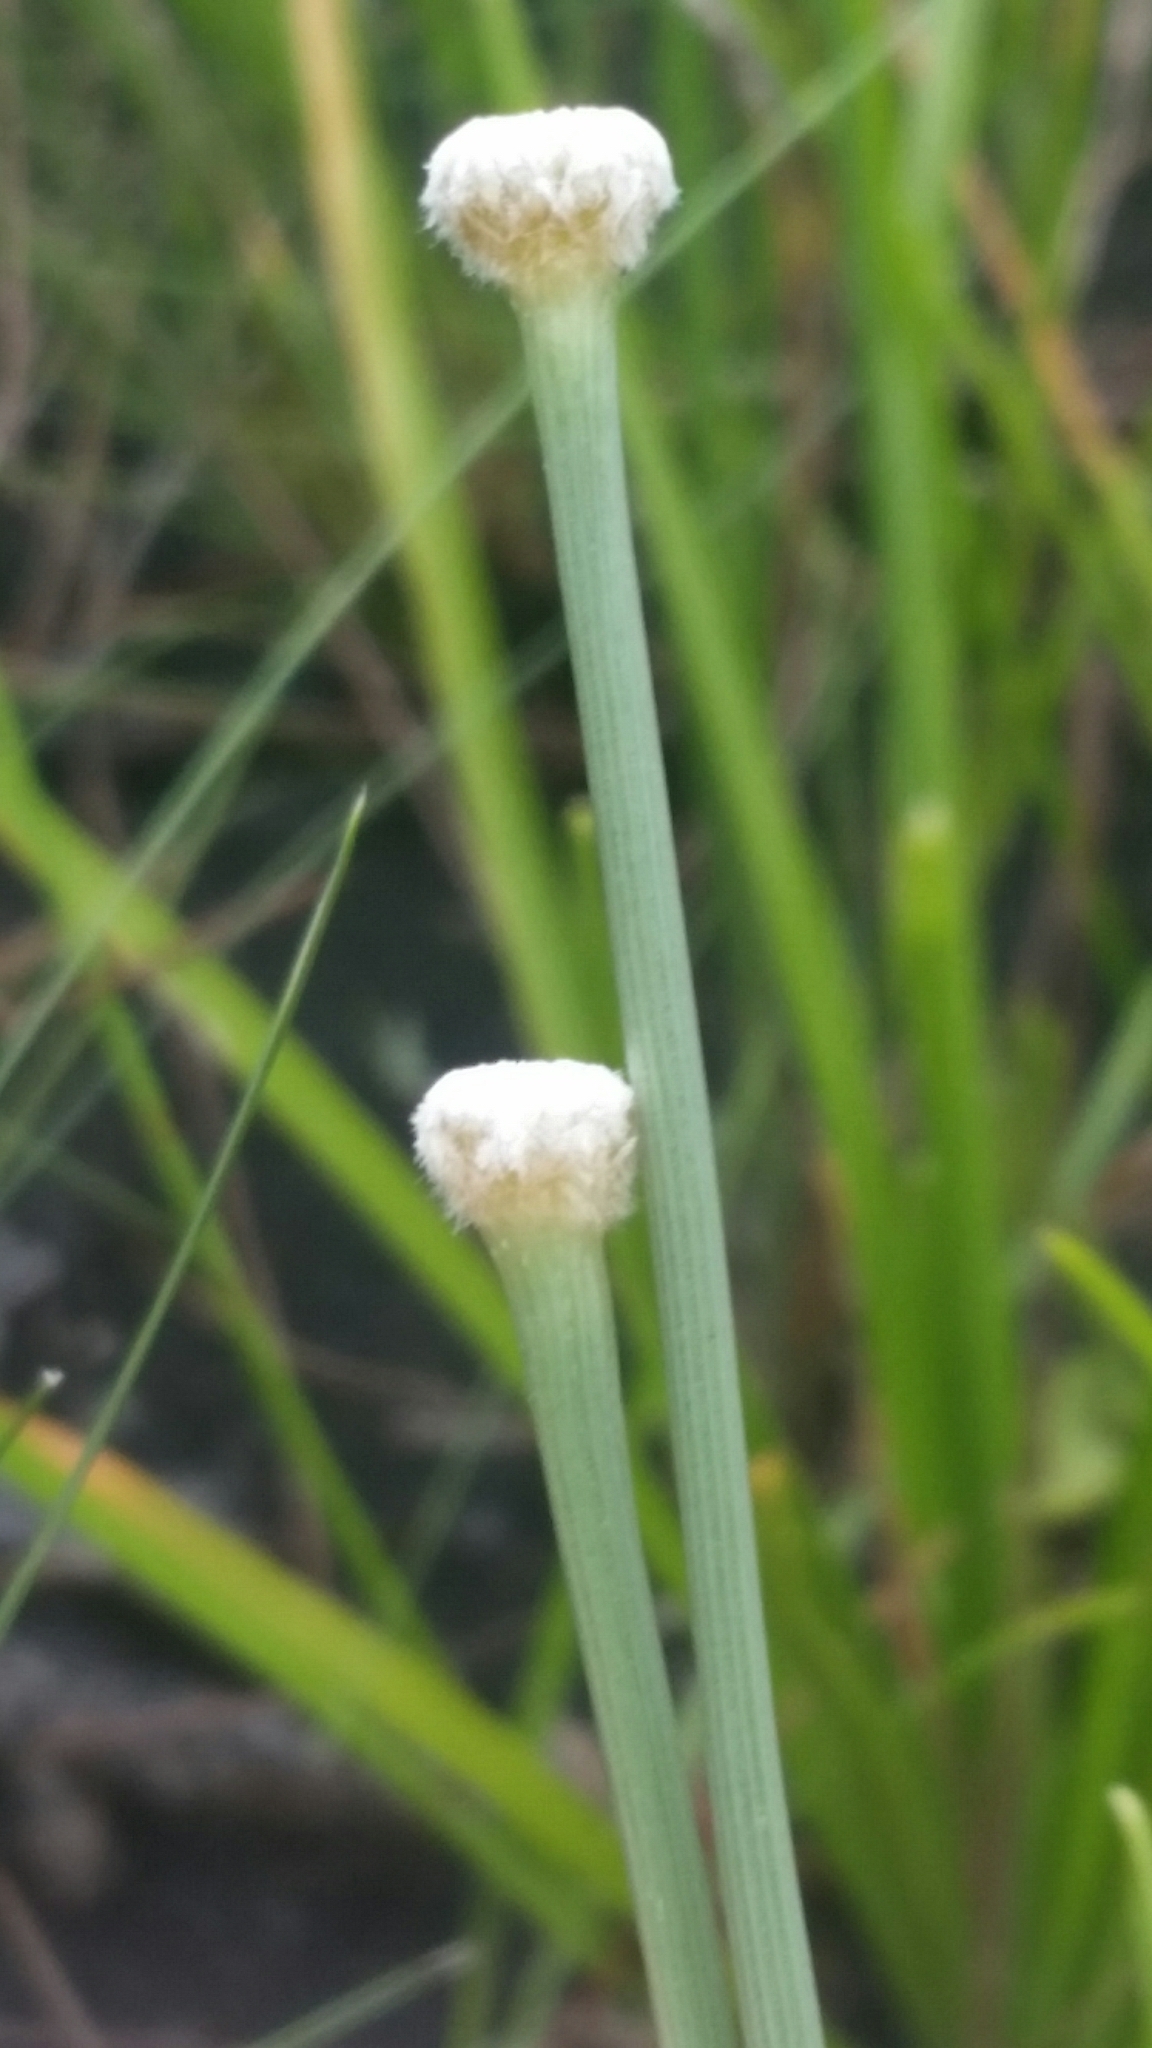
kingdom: Plantae
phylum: Tracheophyta
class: Liliopsida
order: Poales
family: Eriocaulaceae
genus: Eriocaulon
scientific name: Eriocaulon decangulare
